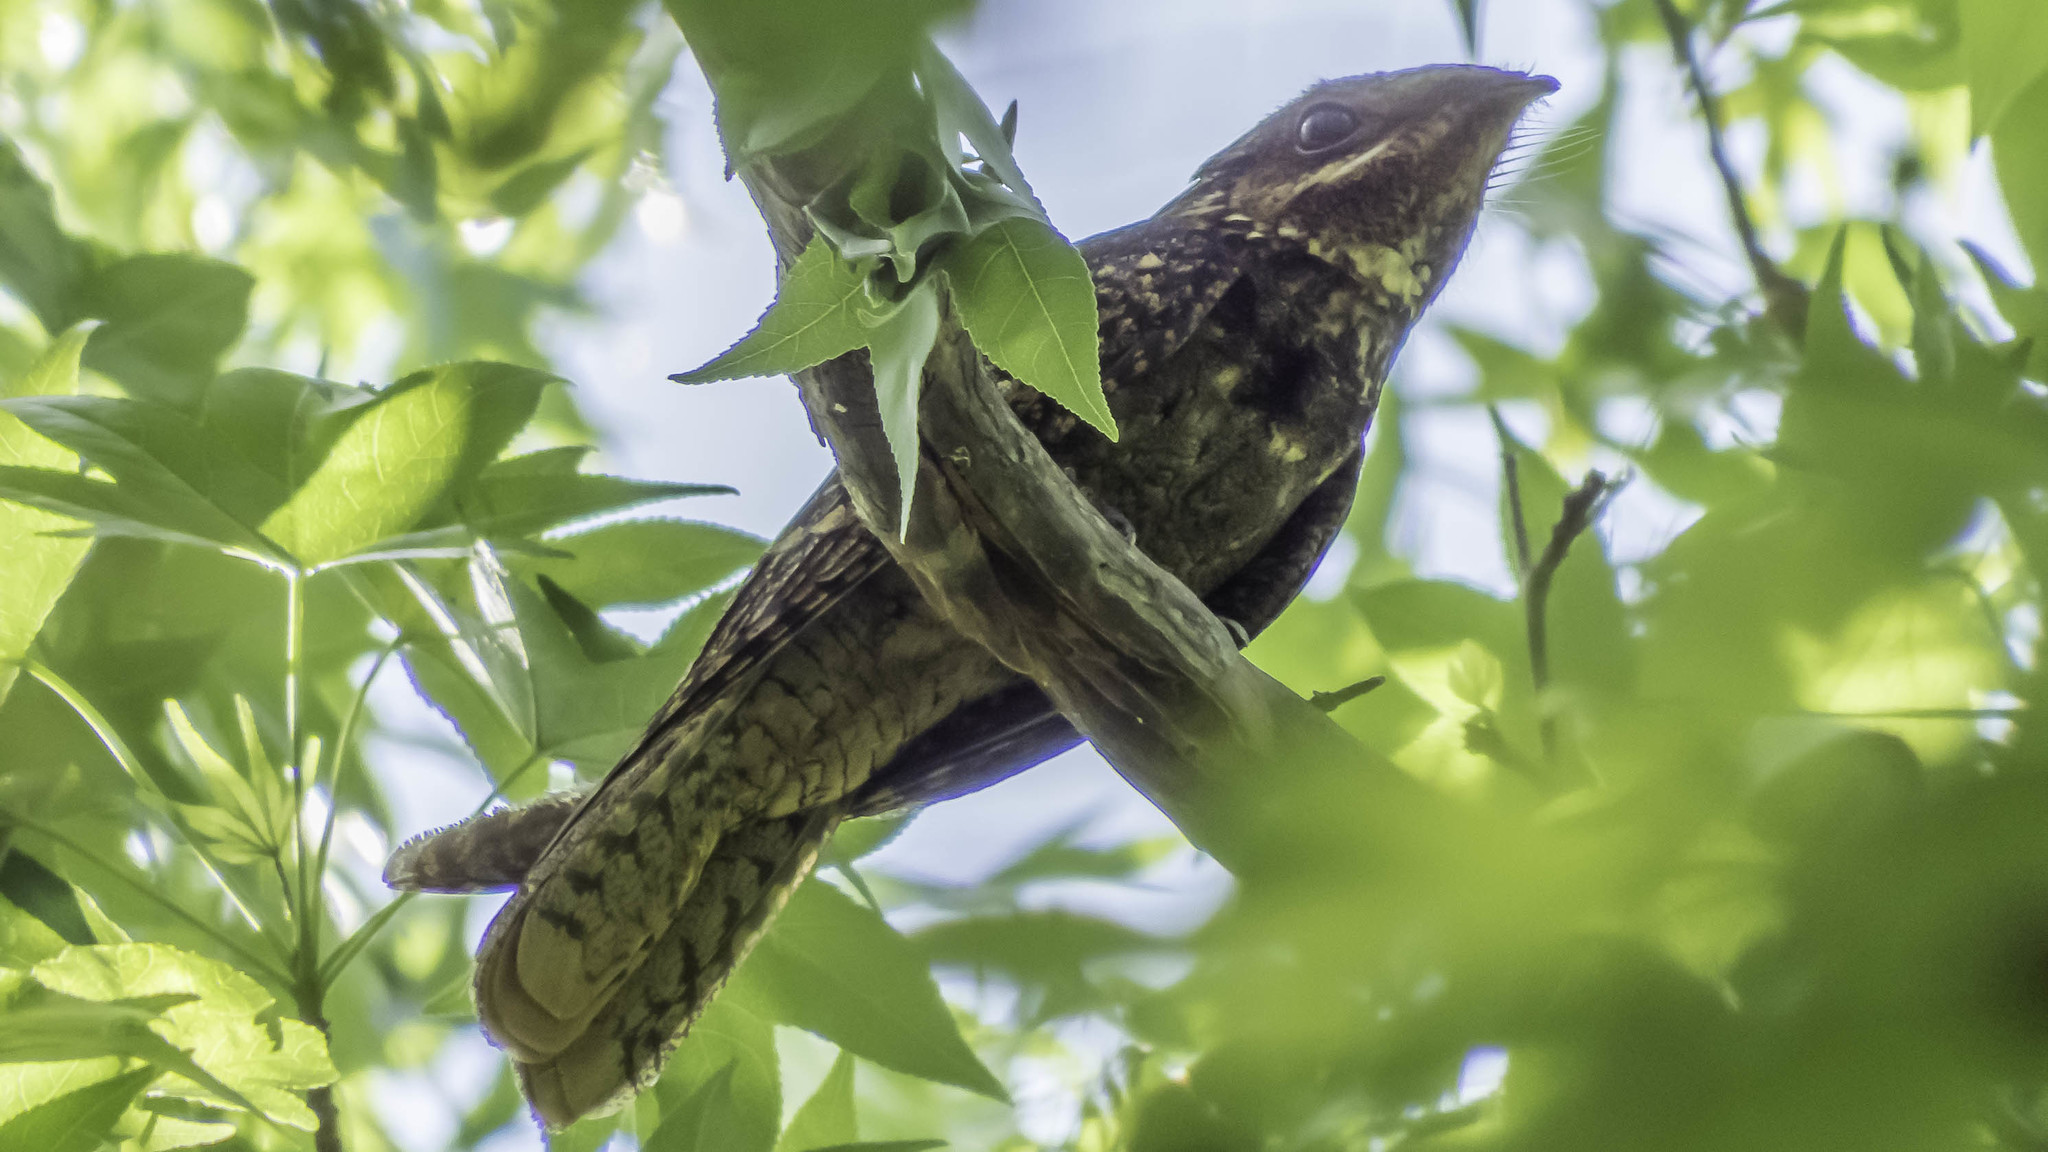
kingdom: Animalia
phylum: Chordata
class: Aves
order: Caprimulgiformes
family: Caprimulgidae
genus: Antrostomus
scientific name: Antrostomus carolinensis
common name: Chuck-will's-widow
